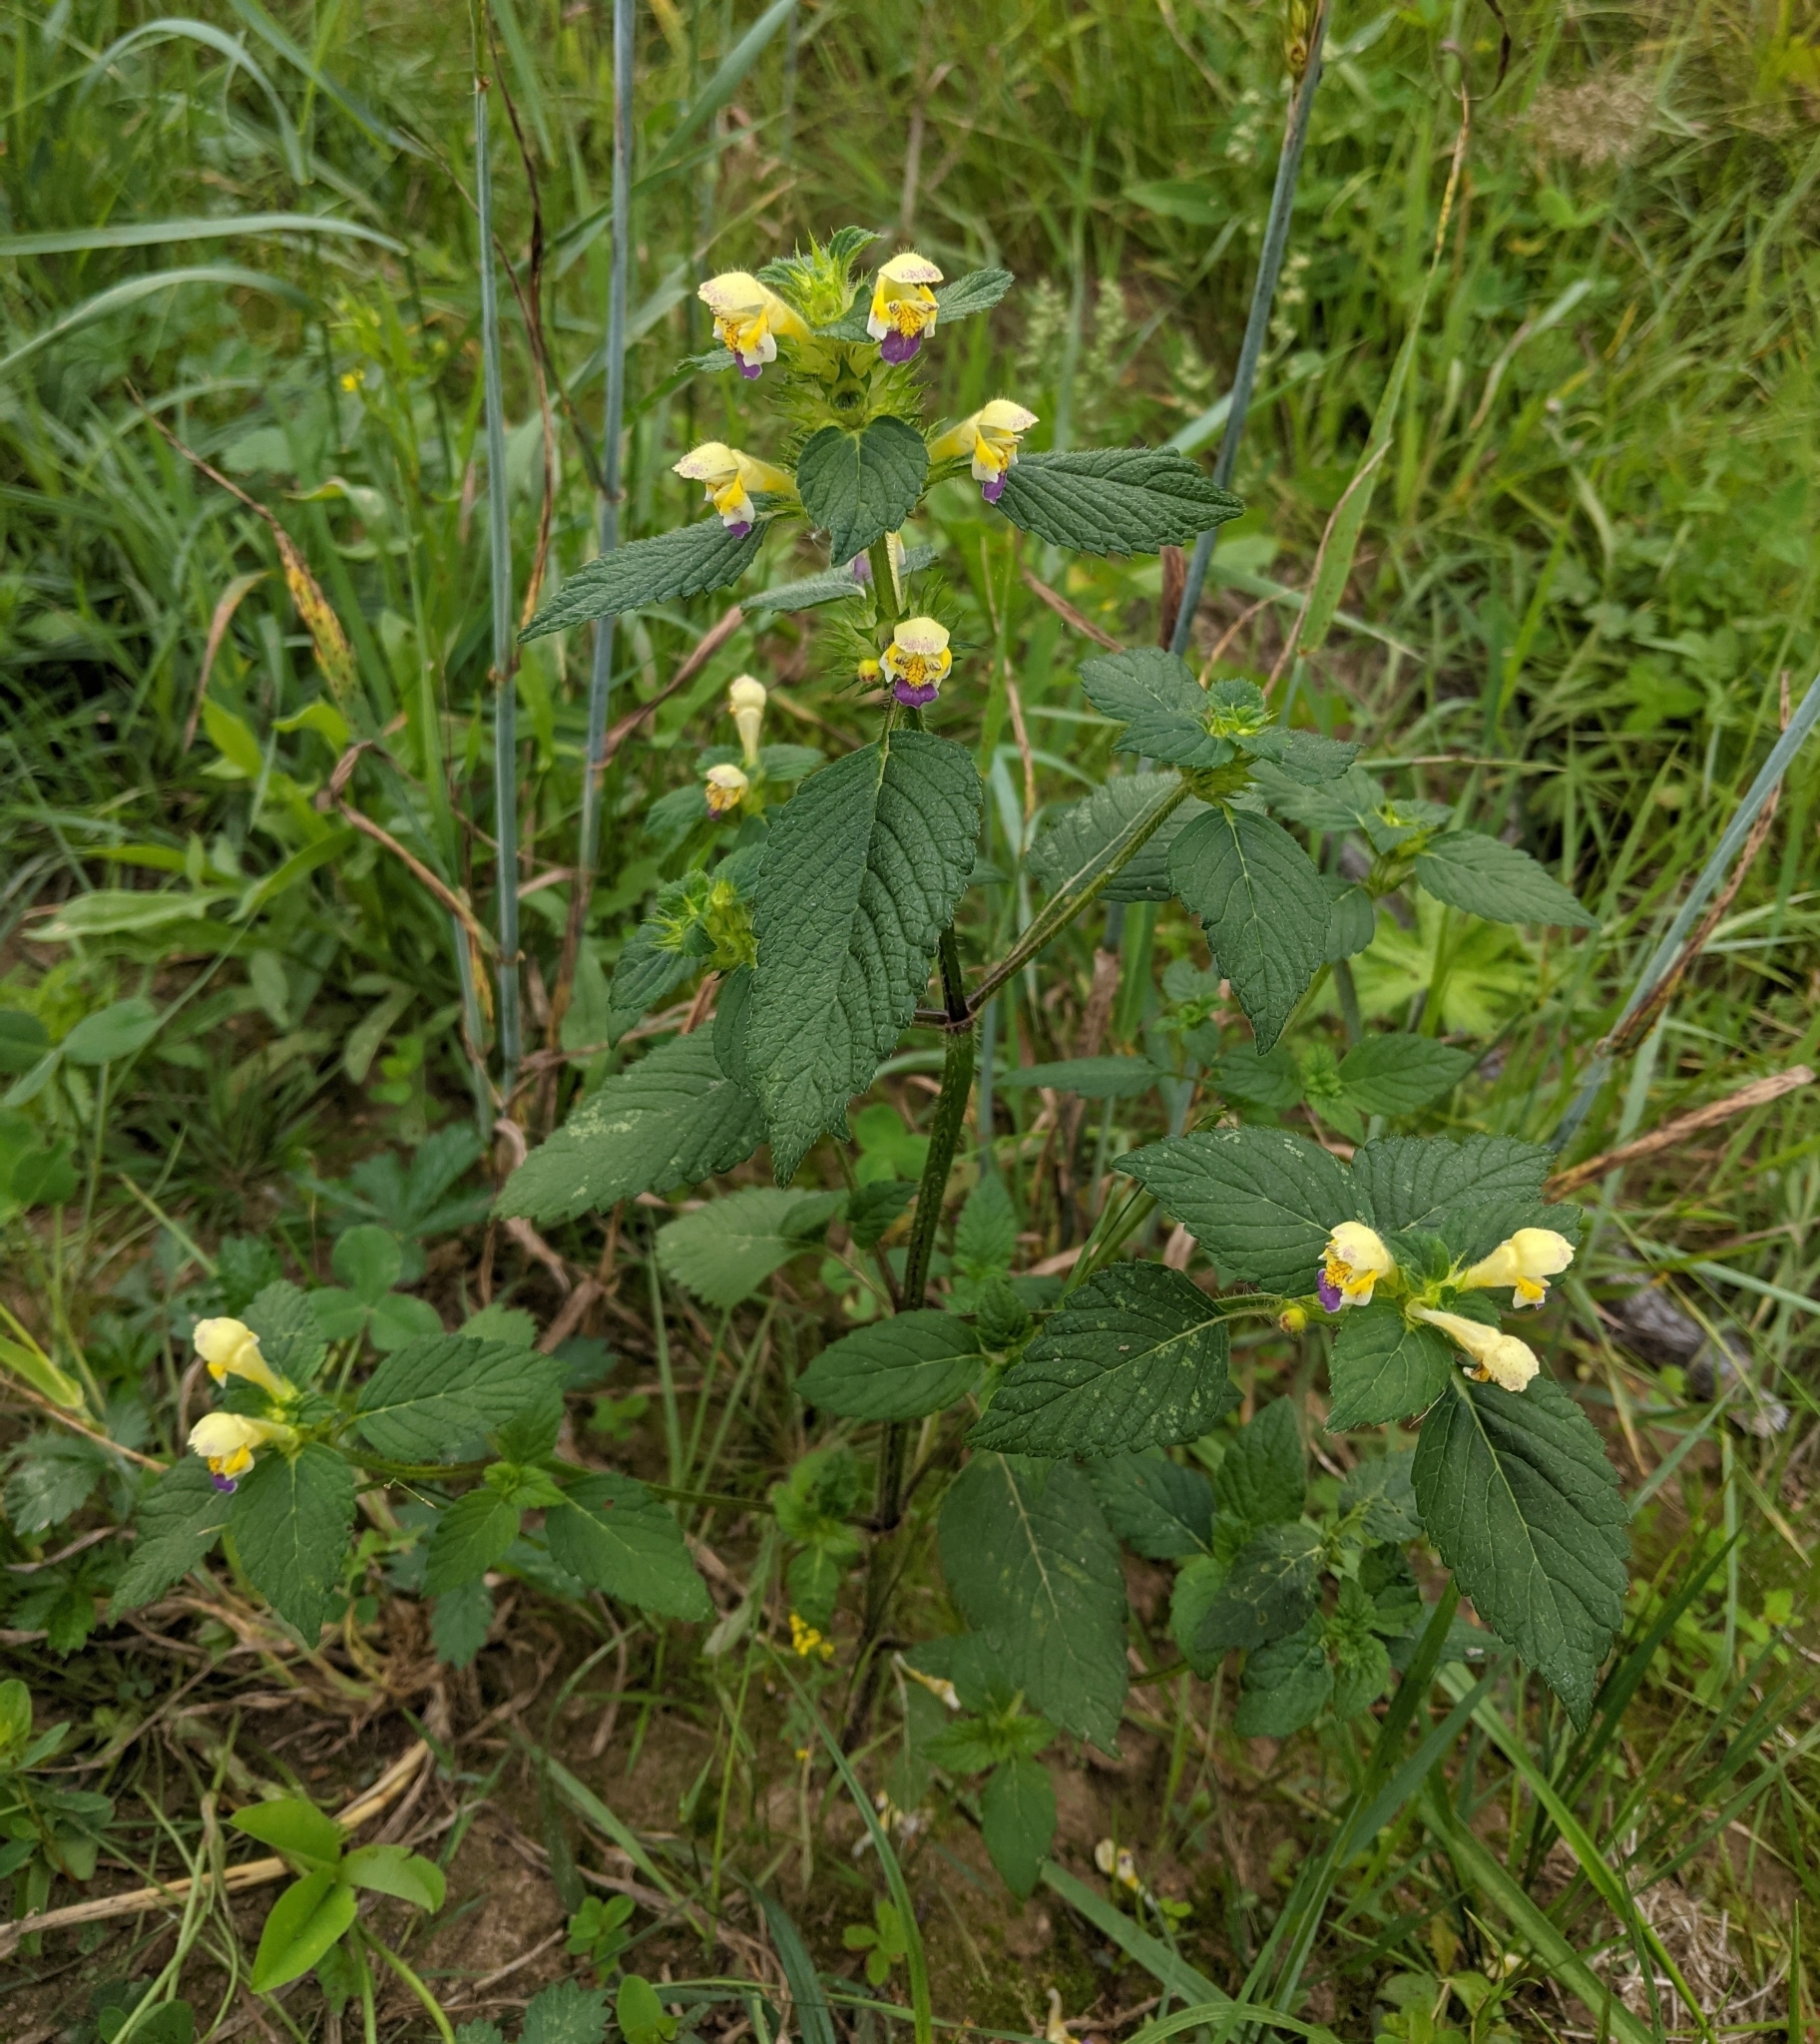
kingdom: Plantae
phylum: Tracheophyta
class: Magnoliopsida
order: Lamiales
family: Lamiaceae
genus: Galeopsis
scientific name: Galeopsis speciosa
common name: Large-flowered hemp-nettle
